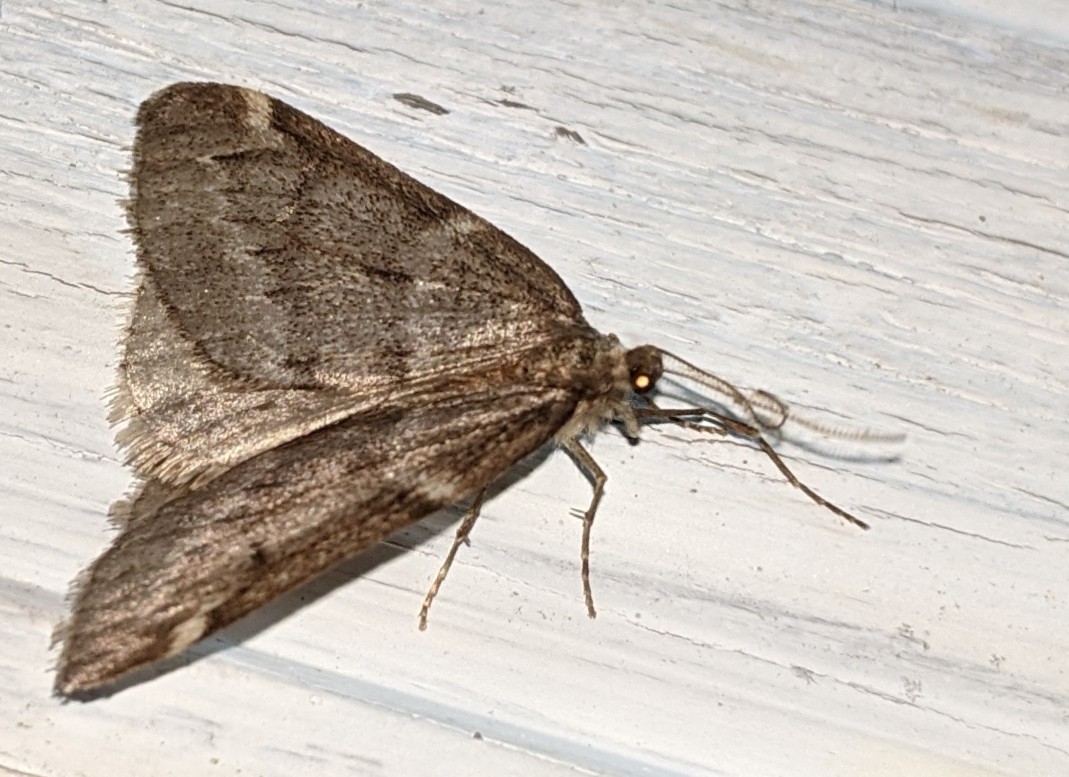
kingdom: Animalia
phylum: Arthropoda
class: Insecta
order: Lepidoptera
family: Geometridae
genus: Alsophila
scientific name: Alsophila pometaria
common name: Fall cankerworm
